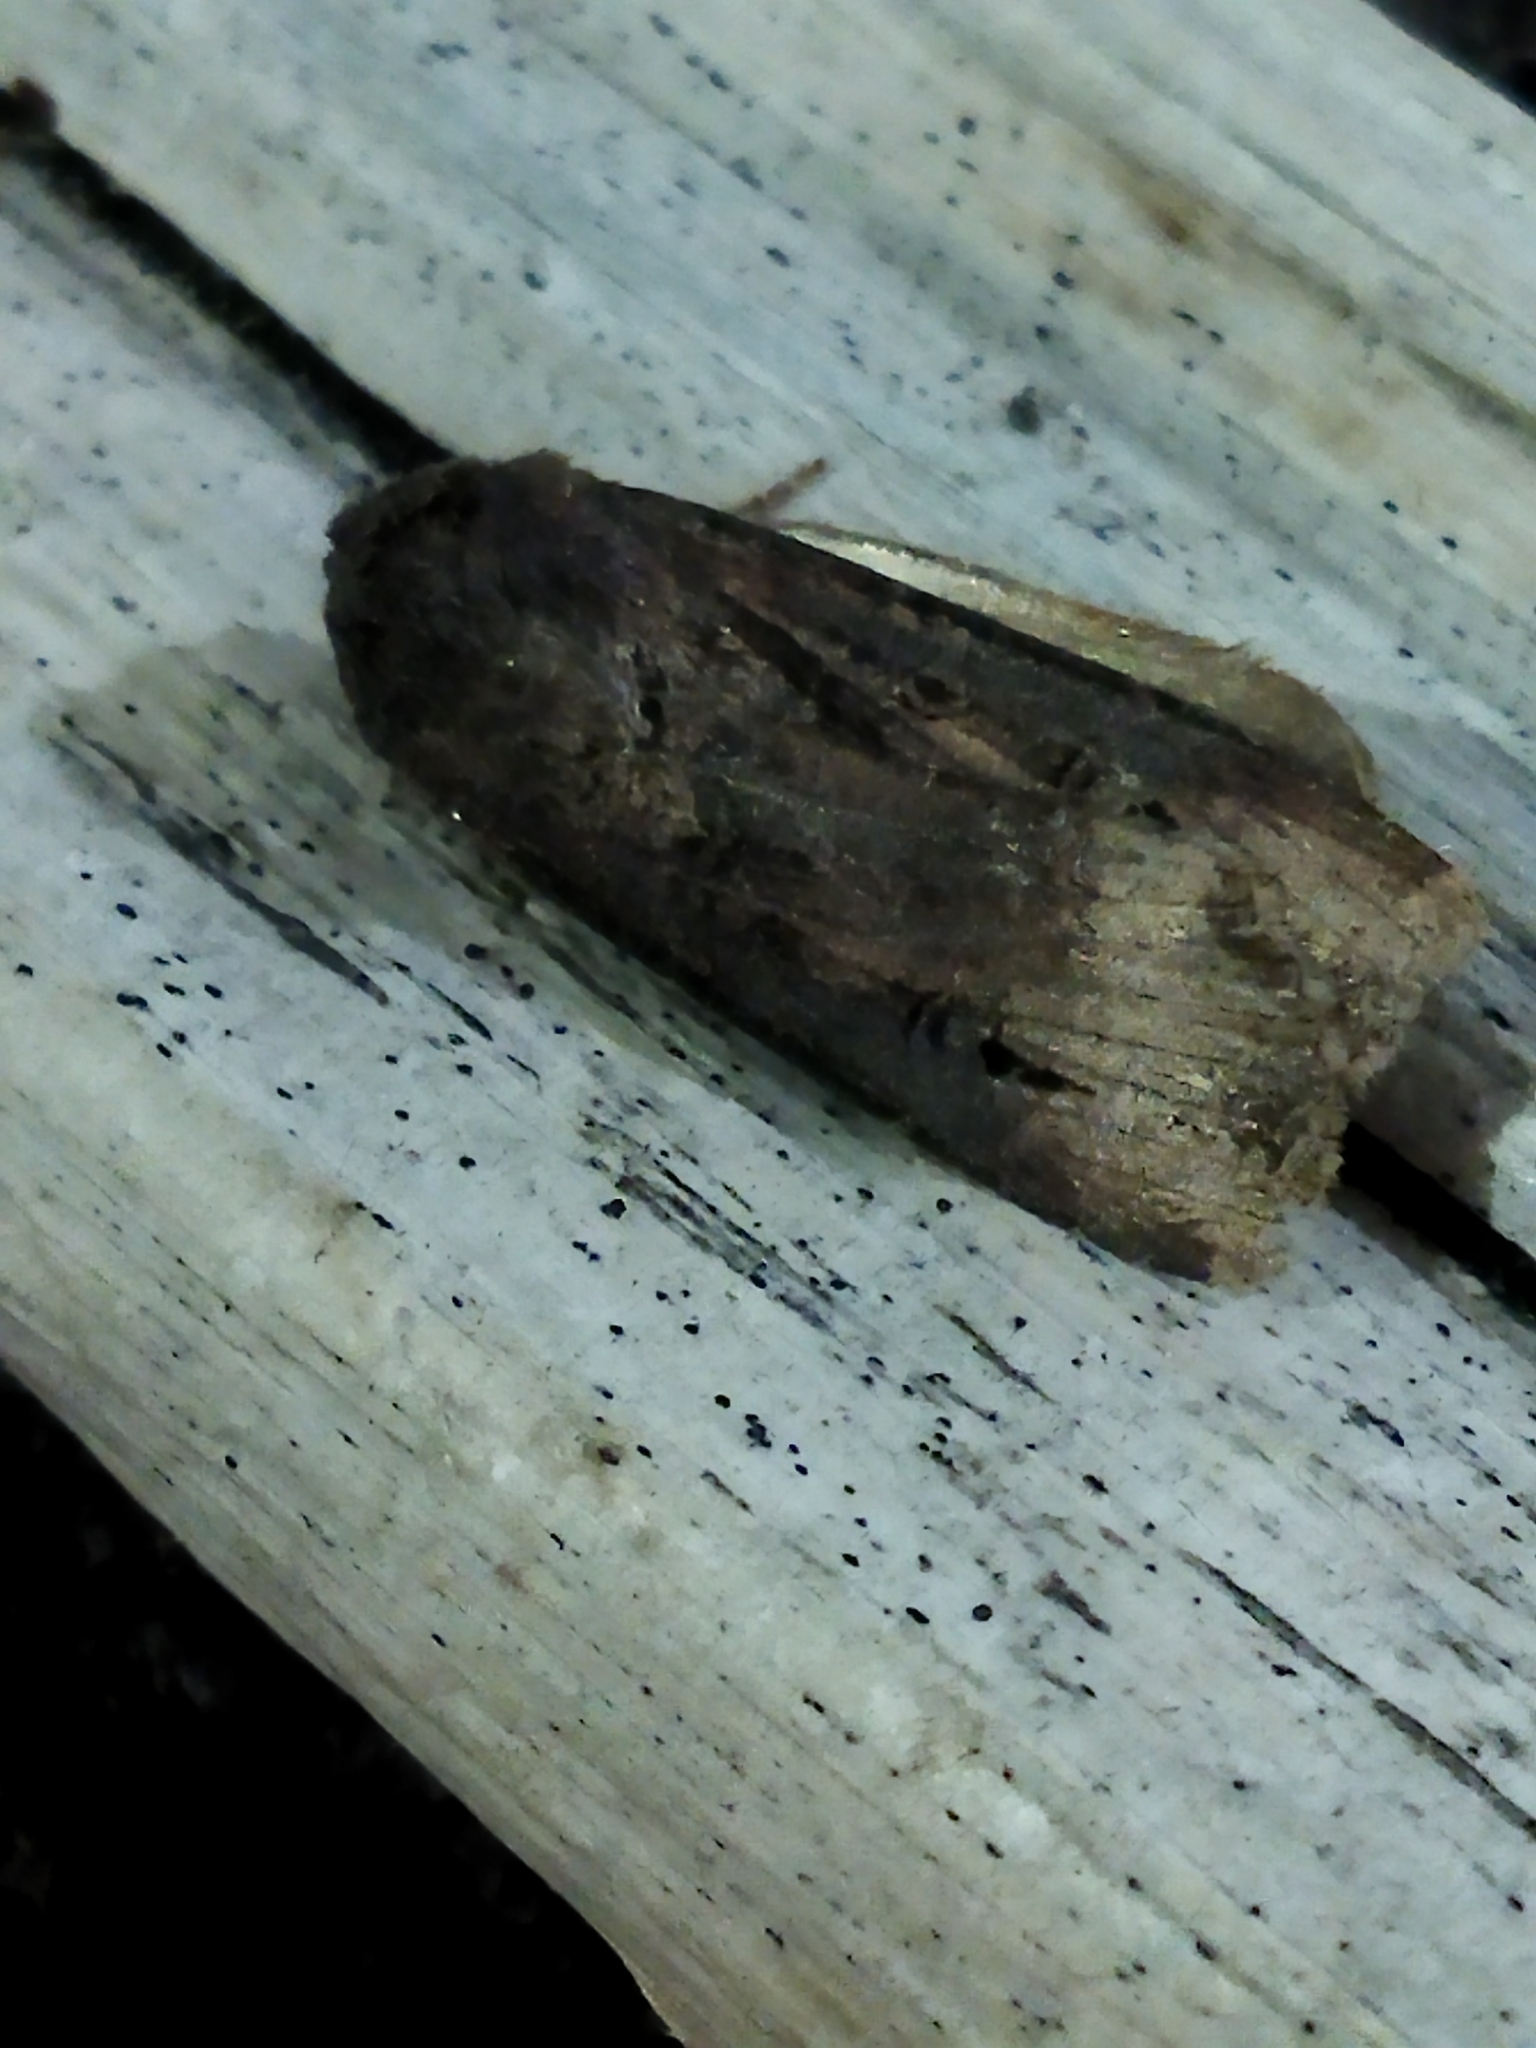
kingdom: Animalia
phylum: Arthropoda
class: Insecta
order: Lepidoptera
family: Noctuidae
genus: Agrotis
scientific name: Agrotis ipsilon
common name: Dark sword-grass
